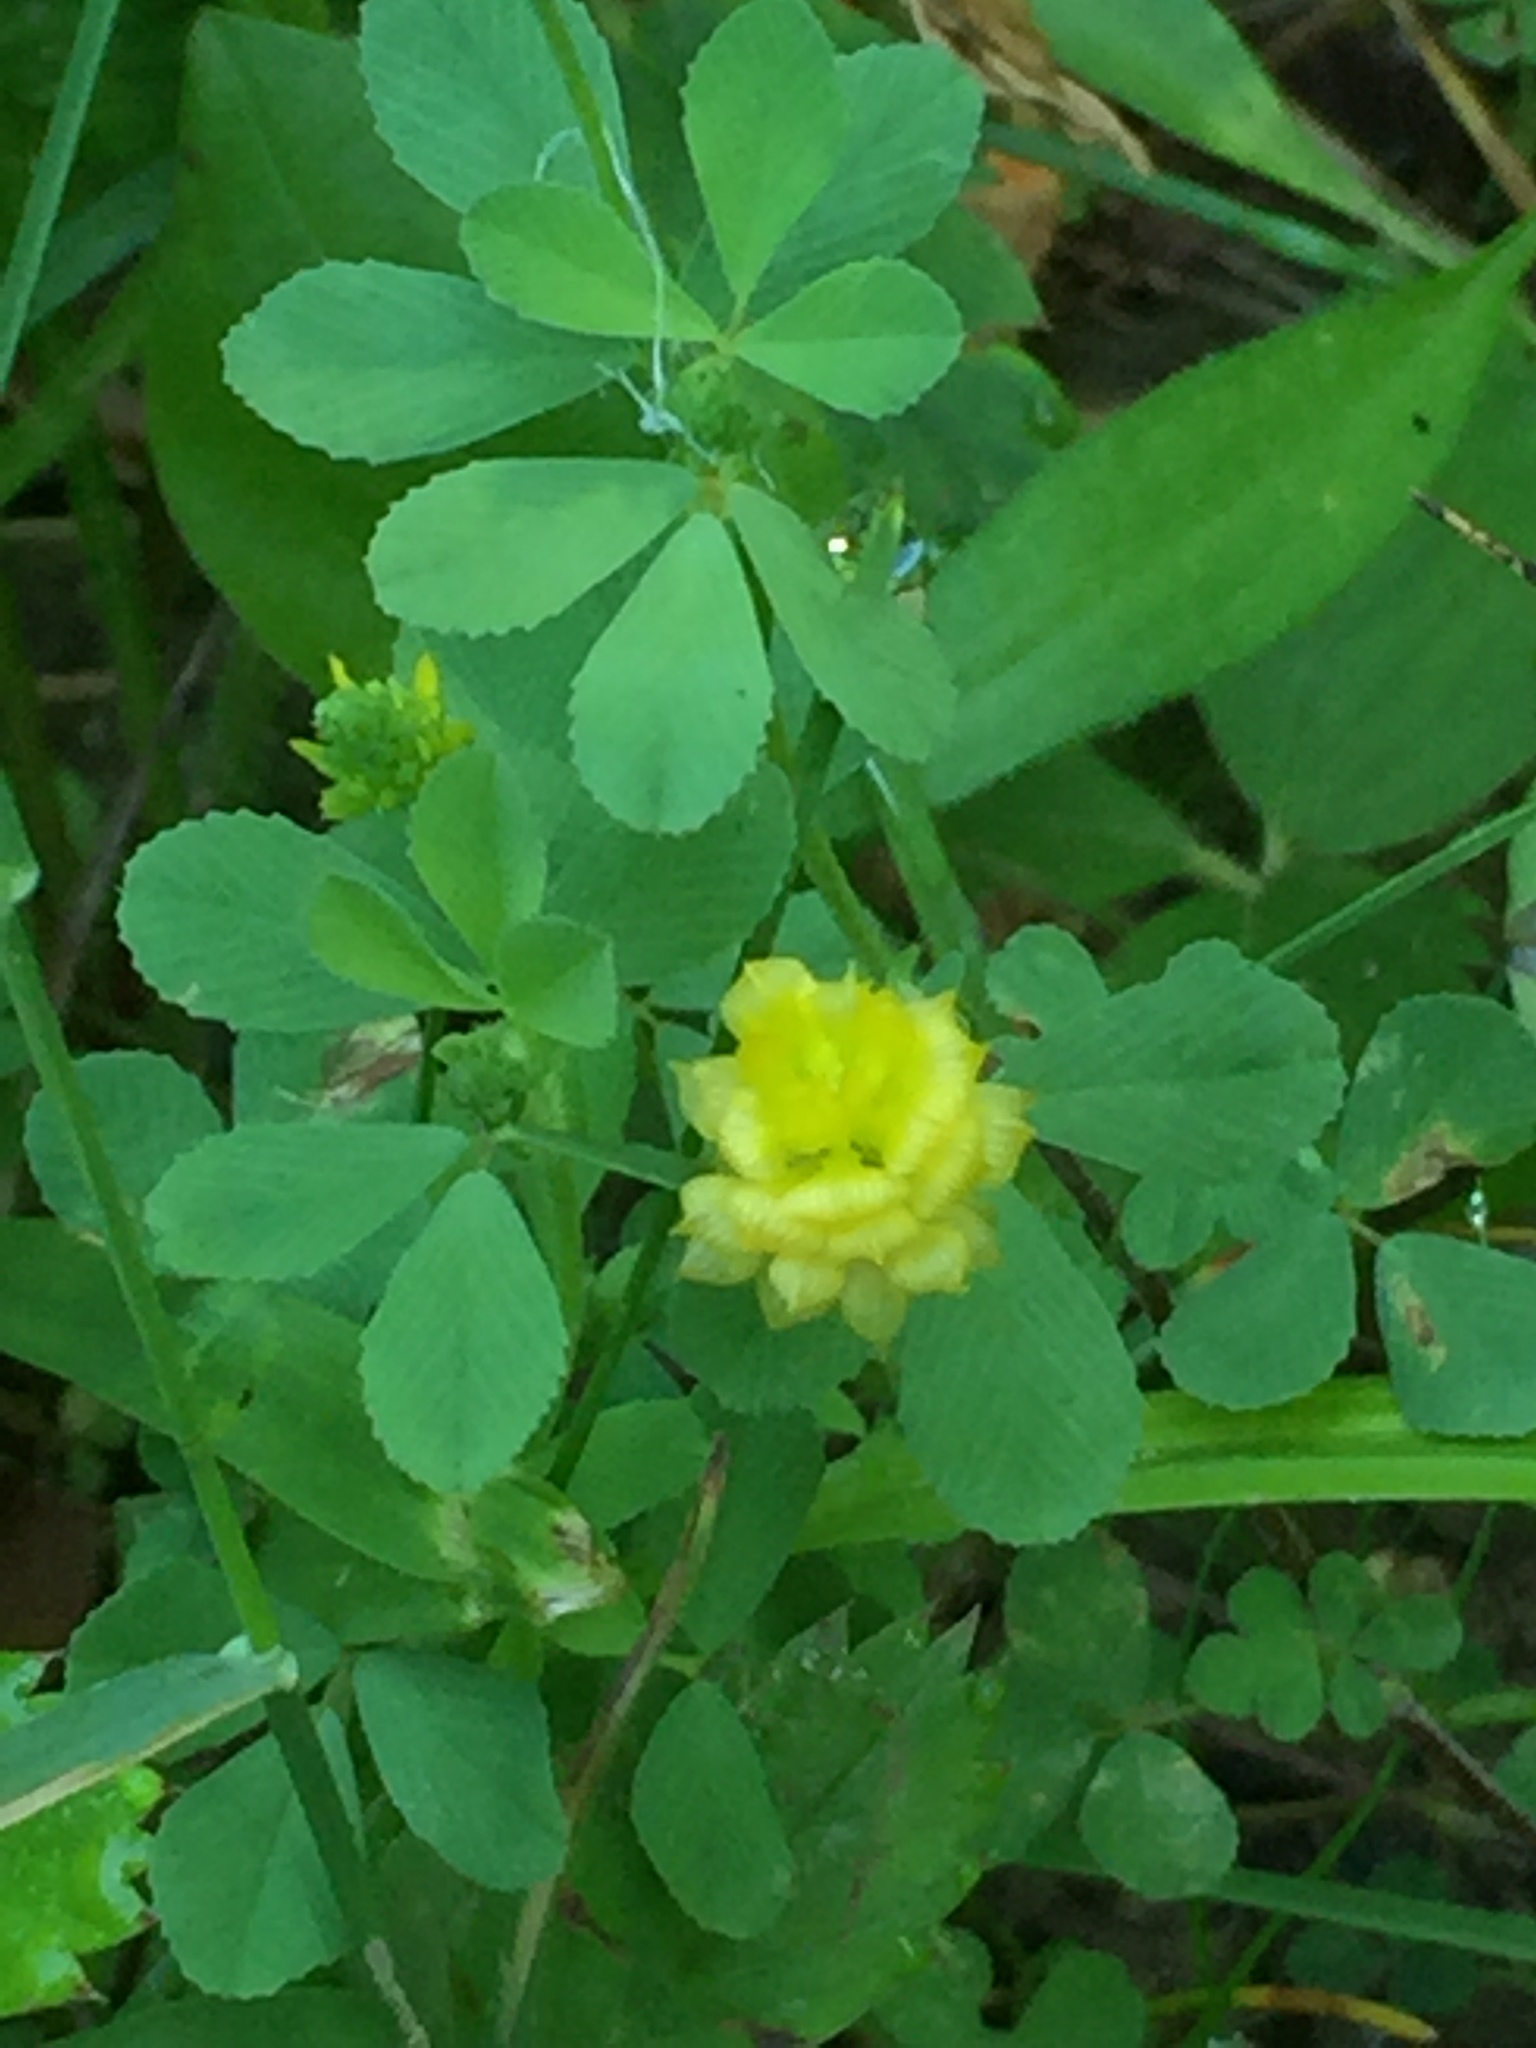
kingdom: Plantae
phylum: Tracheophyta
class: Magnoliopsida
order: Fabales
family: Fabaceae
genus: Trifolium
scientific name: Trifolium campestre
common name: Field clover
